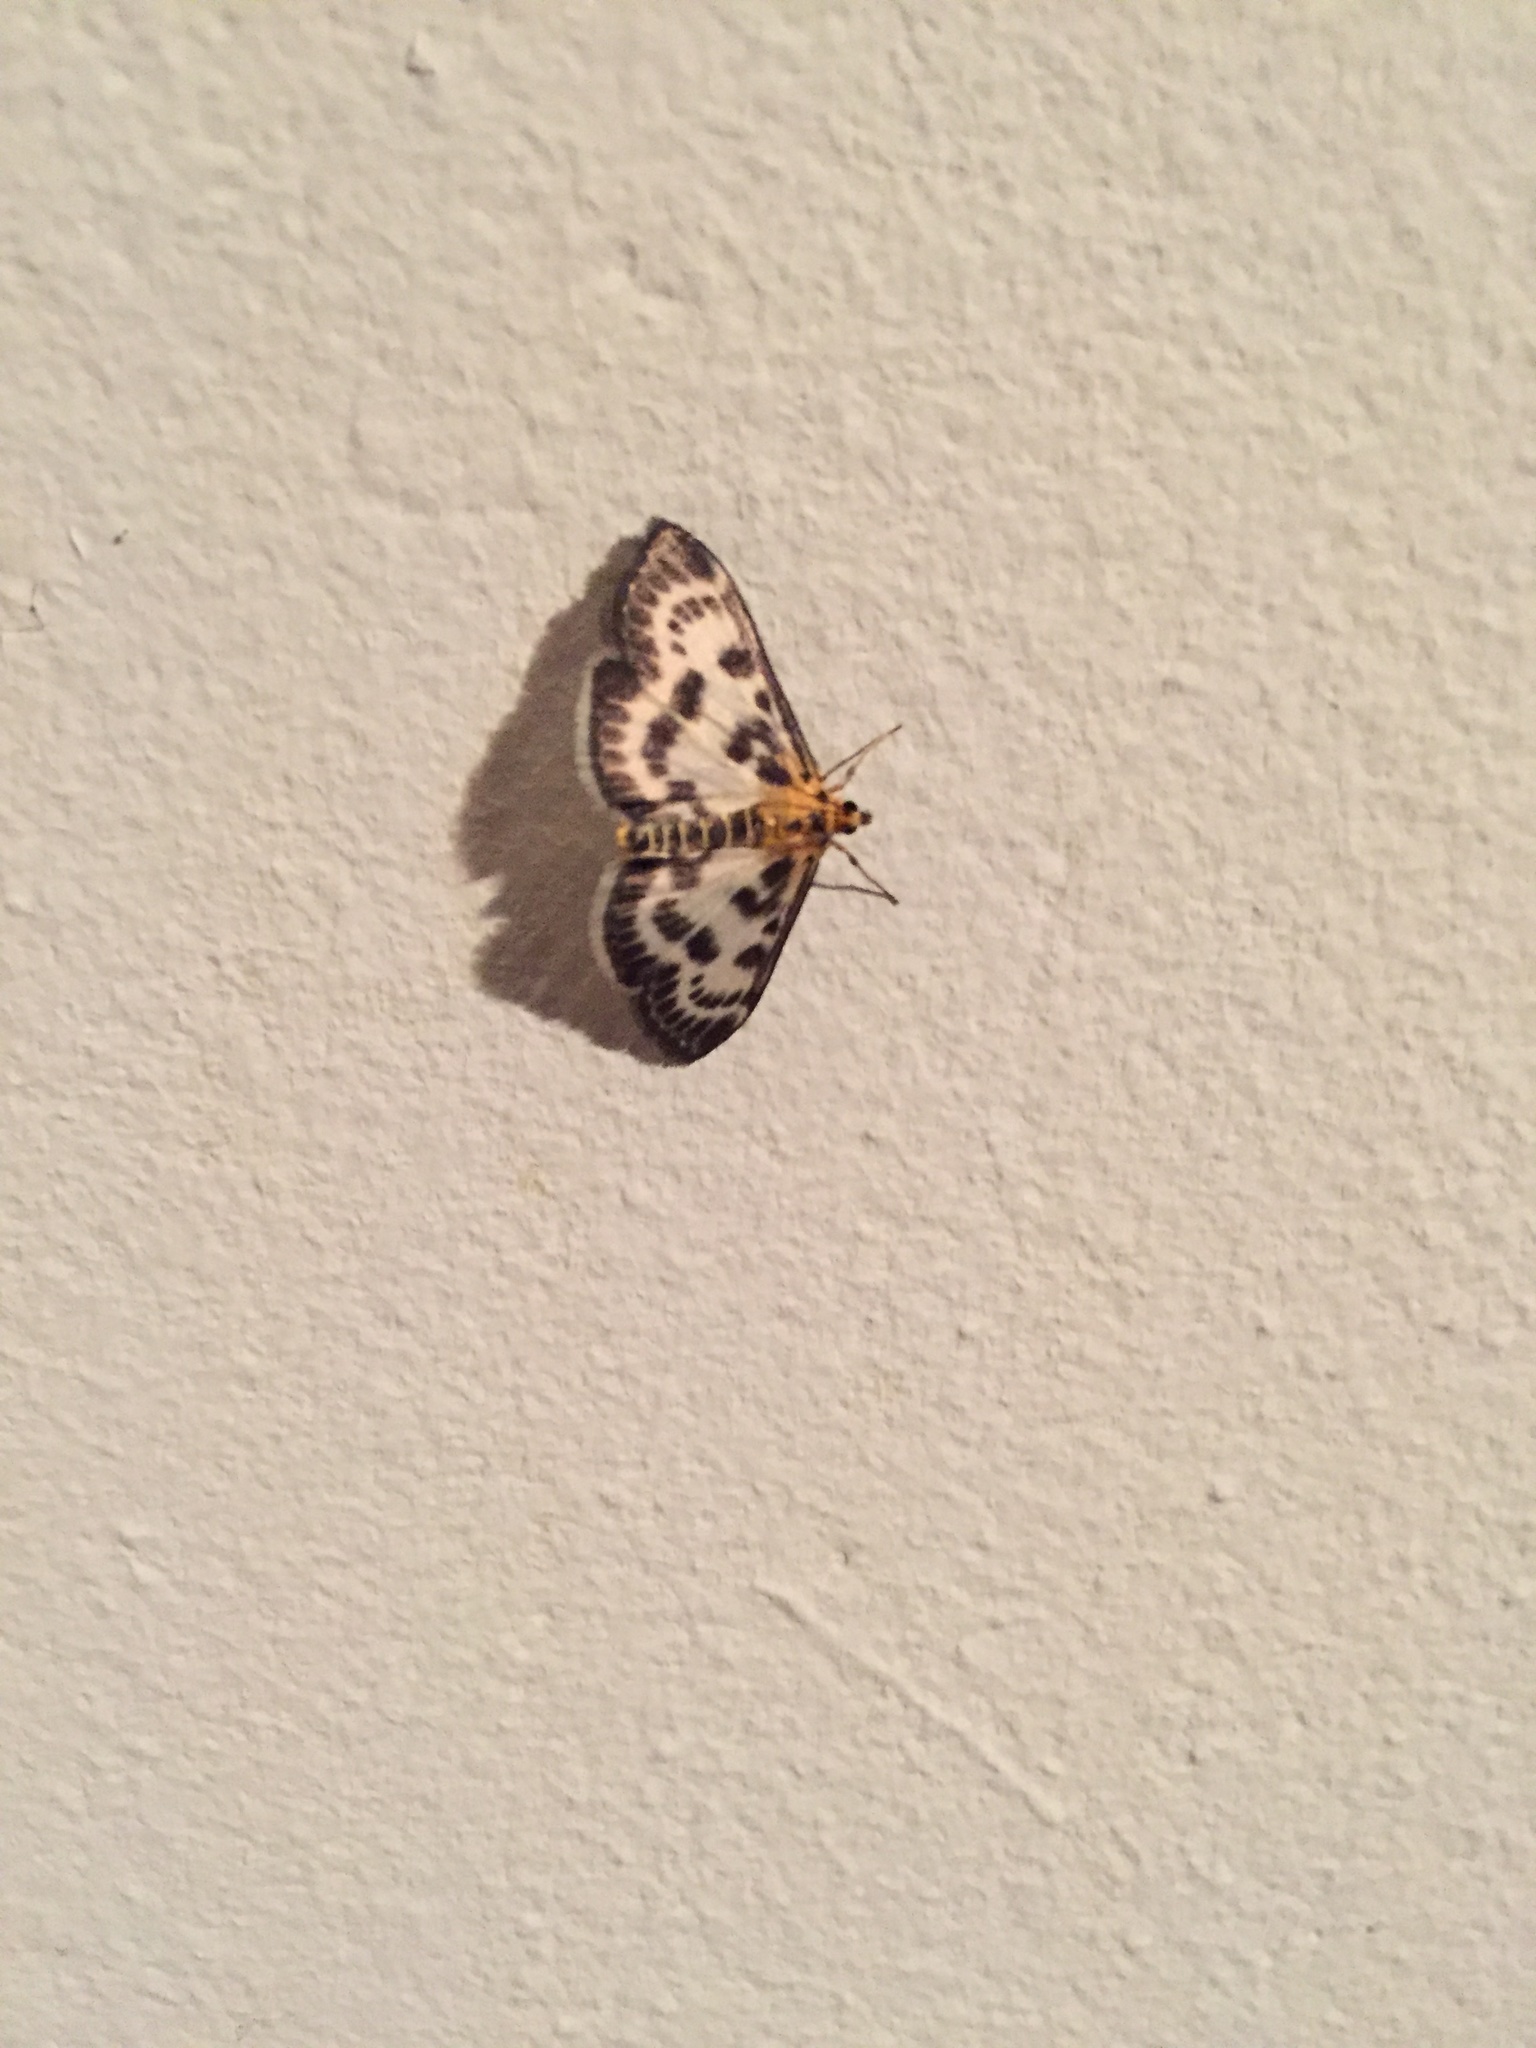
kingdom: Animalia
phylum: Arthropoda
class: Insecta
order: Lepidoptera
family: Crambidae
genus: Anania
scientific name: Anania hortulata
